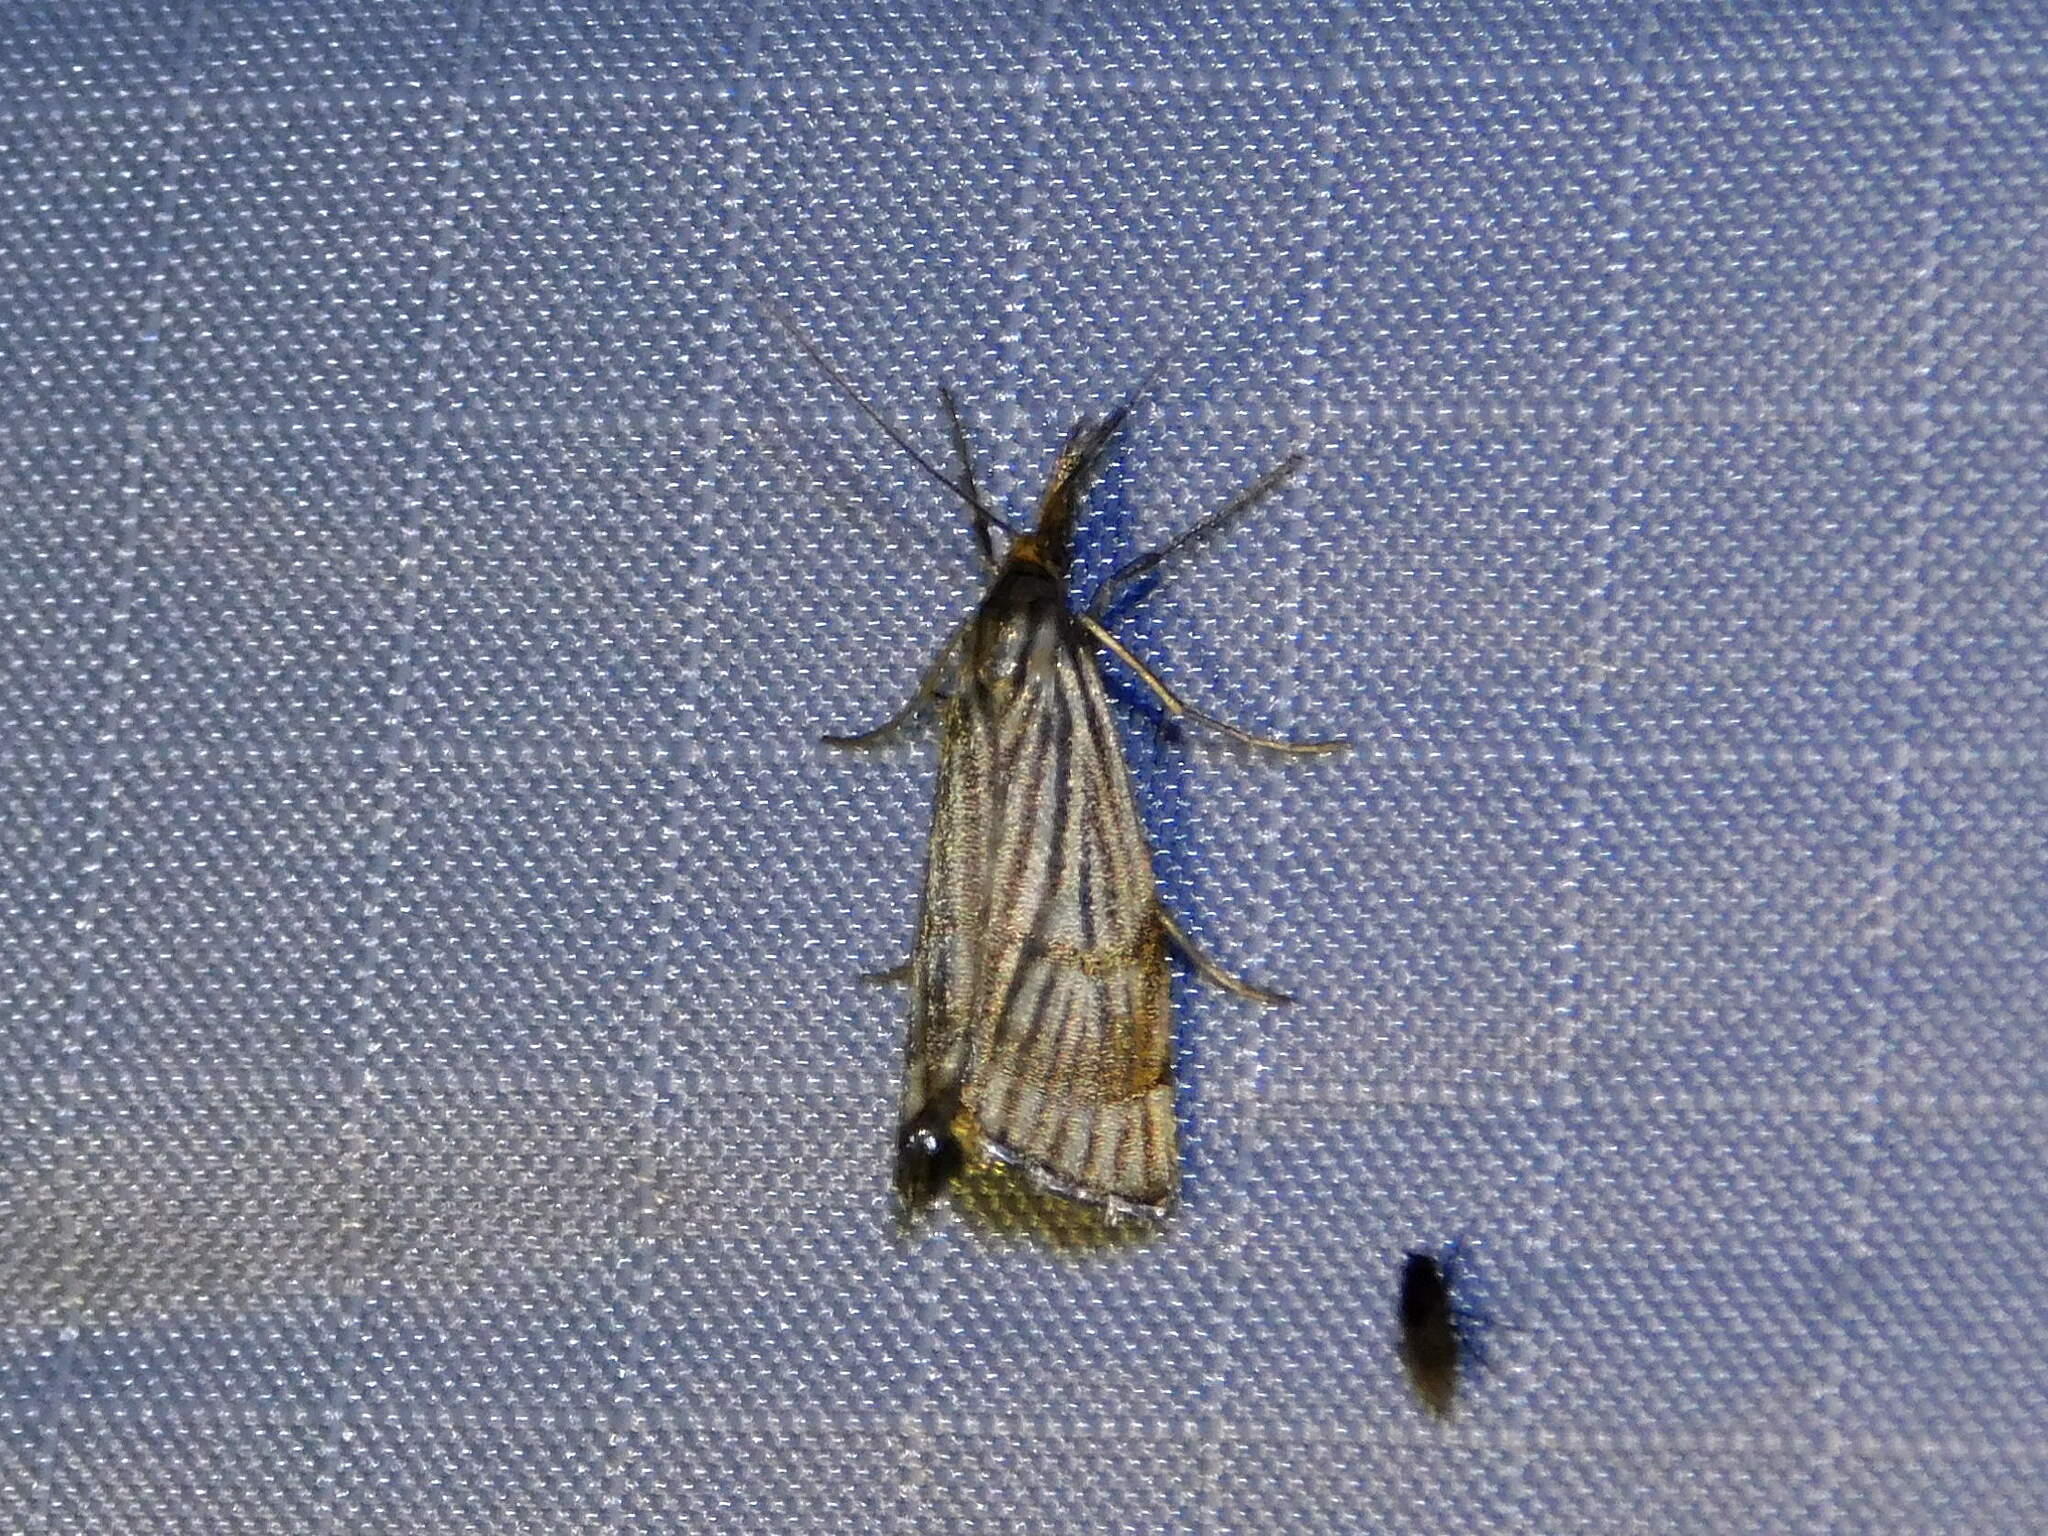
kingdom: Animalia
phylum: Arthropoda
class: Insecta
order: Lepidoptera
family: Crambidae
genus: Chrysocrambus
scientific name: Chrysocrambus linetella
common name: Orange-bar grass-veneer
